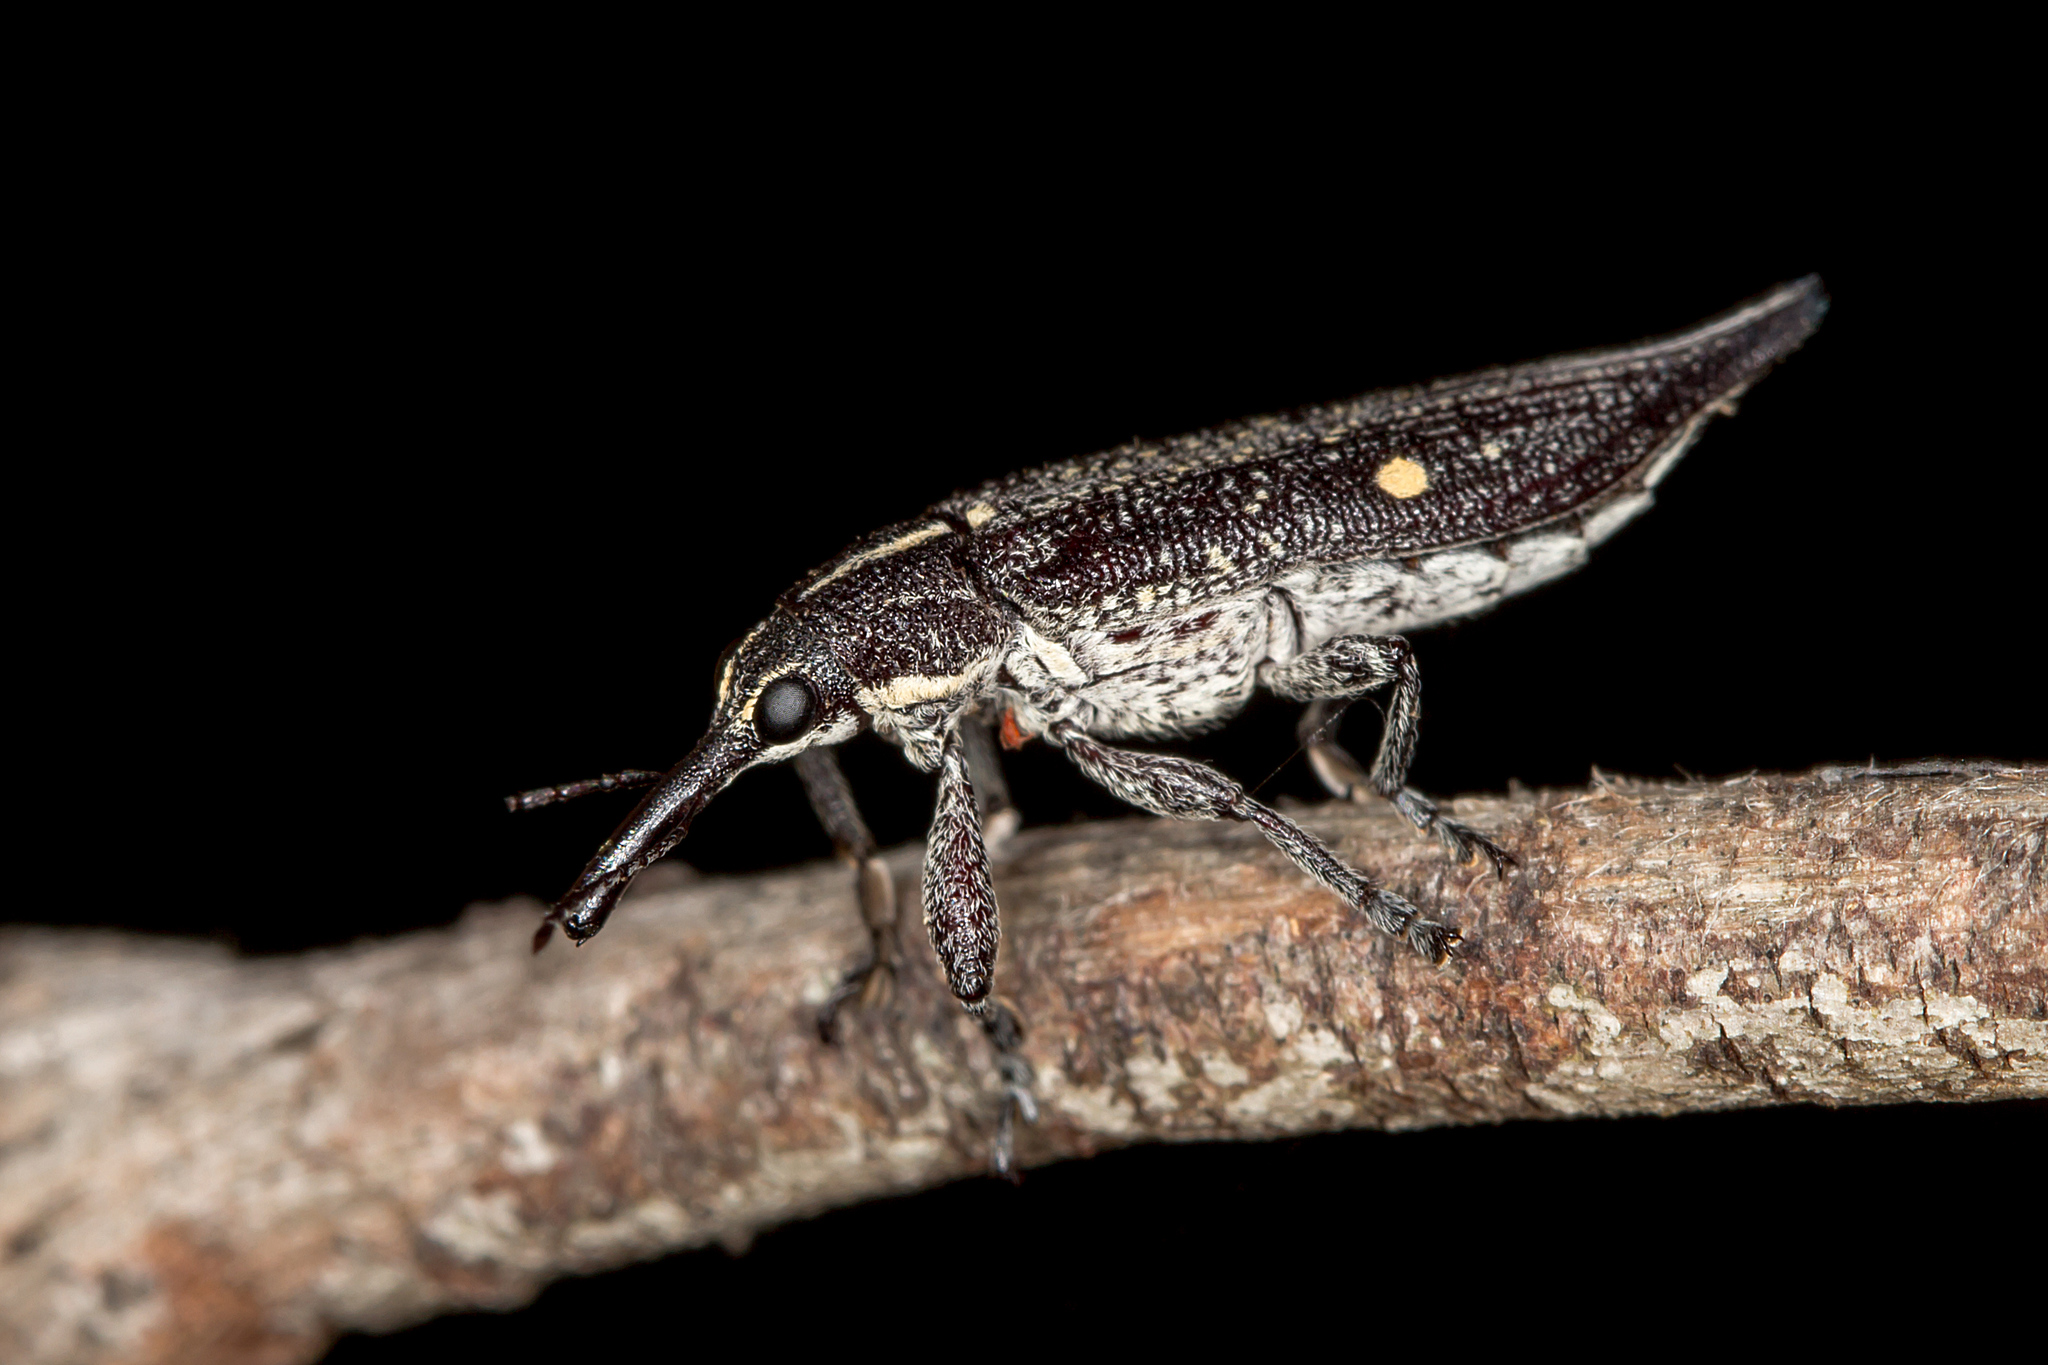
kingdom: Animalia
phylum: Arthropoda
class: Insecta
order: Coleoptera
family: Belidae
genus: Rhinotia
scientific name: Rhinotia bidentata
